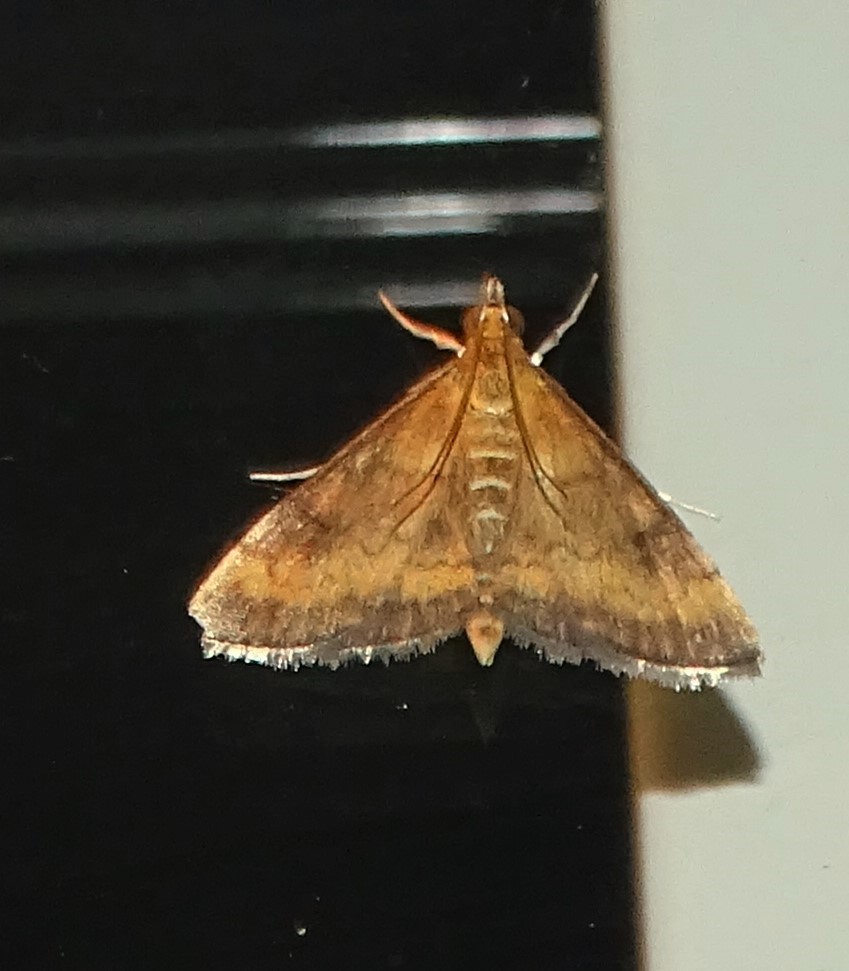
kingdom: Animalia
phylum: Arthropoda
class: Insecta
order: Lepidoptera
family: Crambidae
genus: Pyrausta
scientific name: Pyrausta rubricalis
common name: Variable reddish pyrausta
